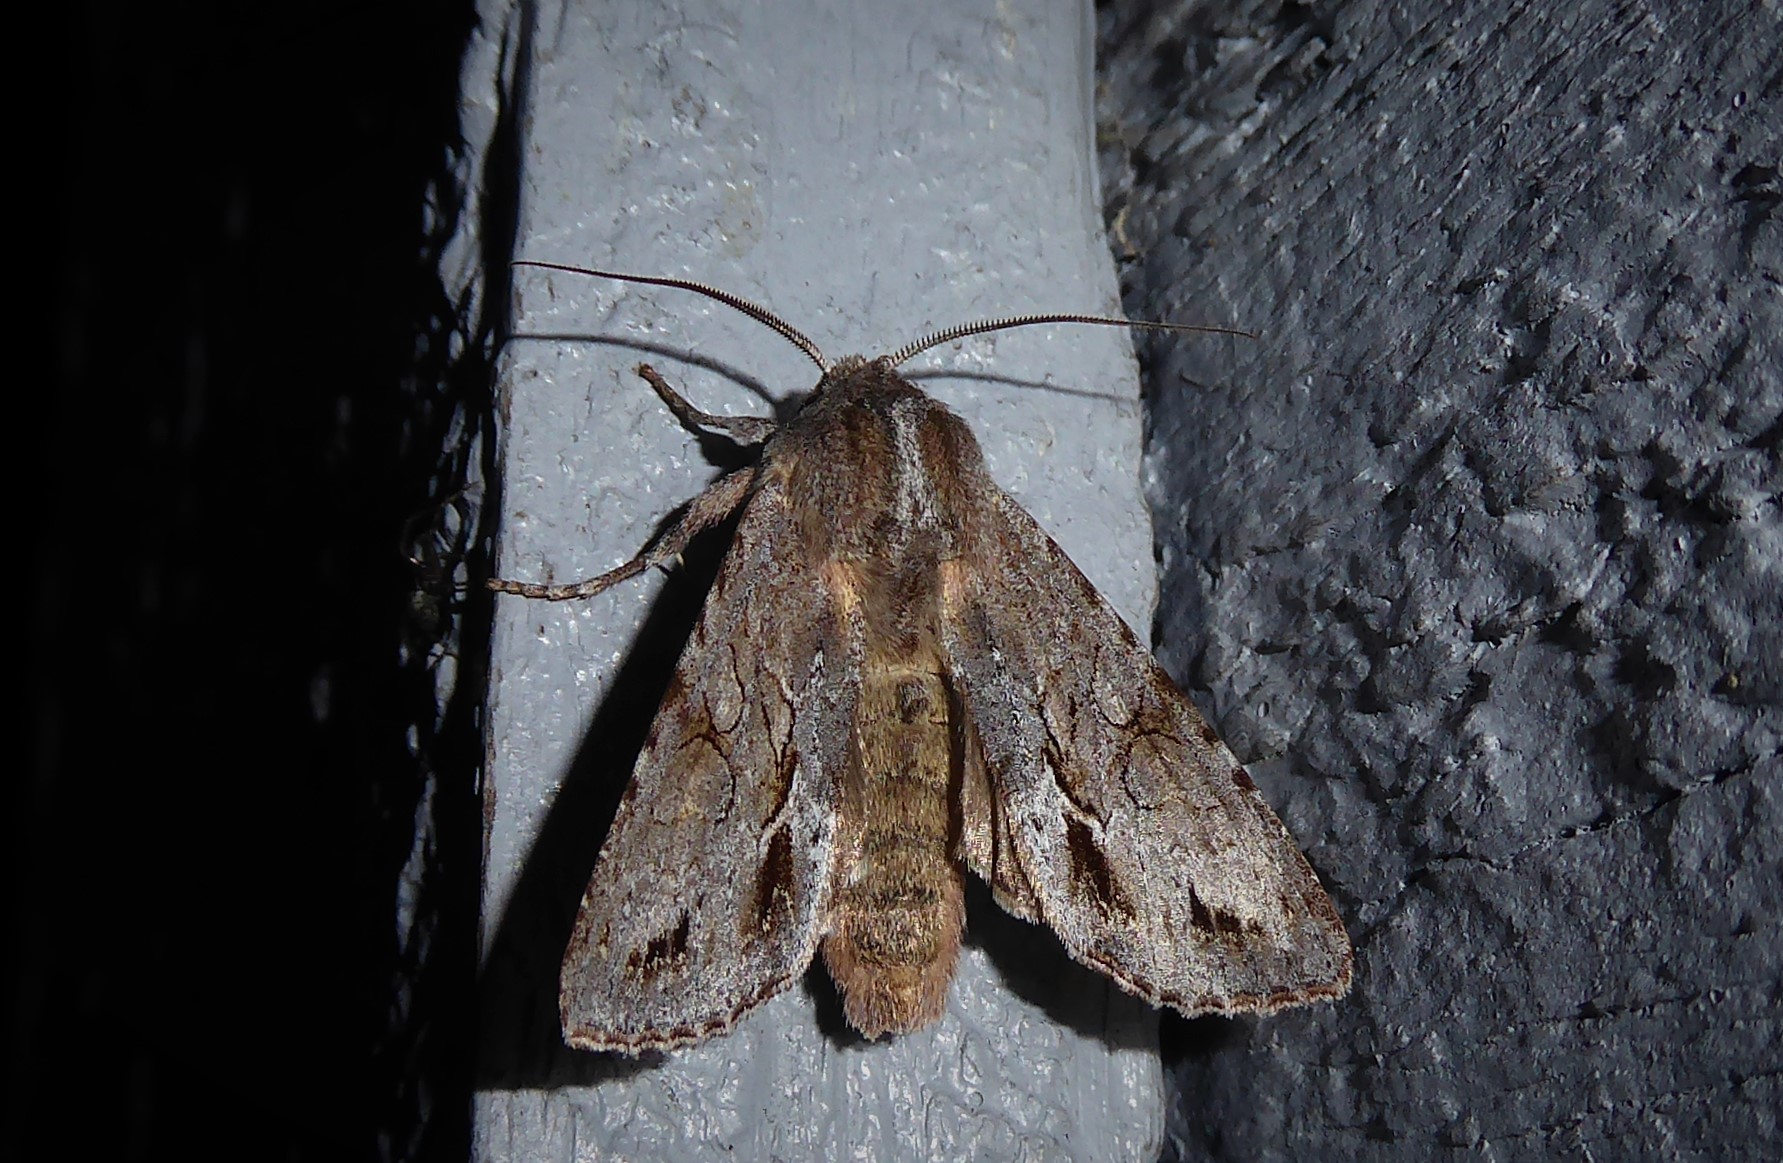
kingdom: Animalia
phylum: Arthropoda
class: Insecta
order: Lepidoptera
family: Noctuidae
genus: Ichneutica
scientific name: Ichneutica
